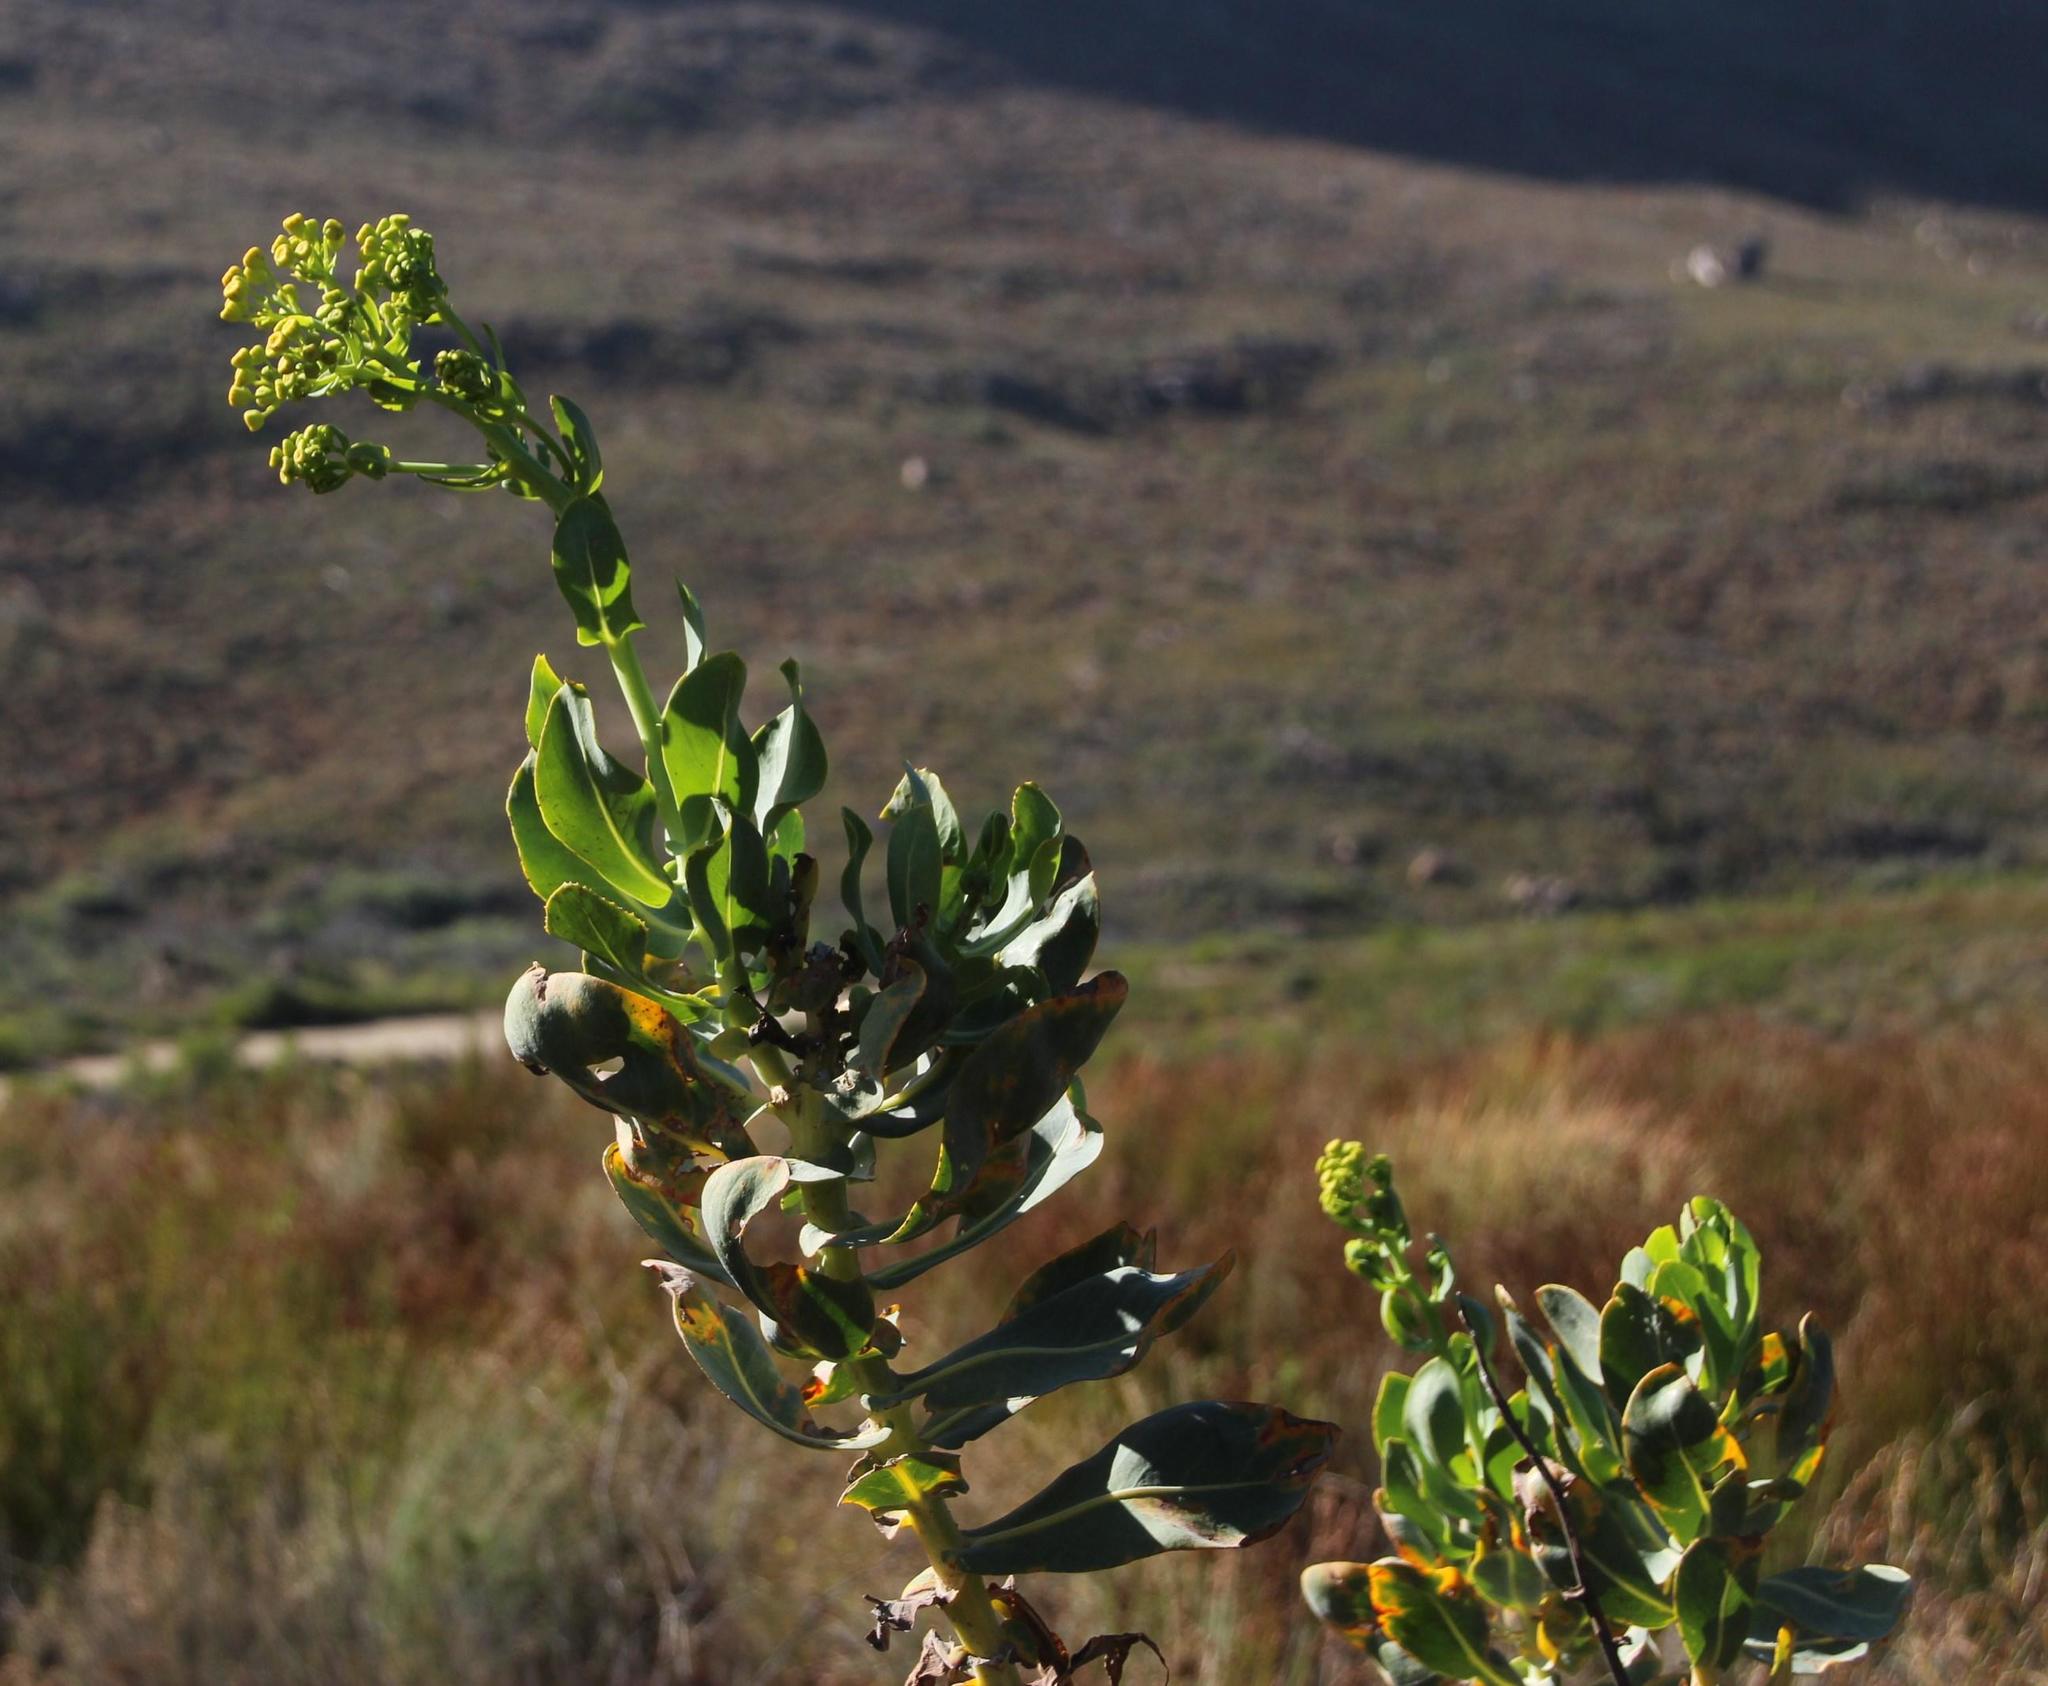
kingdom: Plantae
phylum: Tracheophyta
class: Magnoliopsida
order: Asterales
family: Asteraceae
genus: Othonna
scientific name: Othonna parviflora
